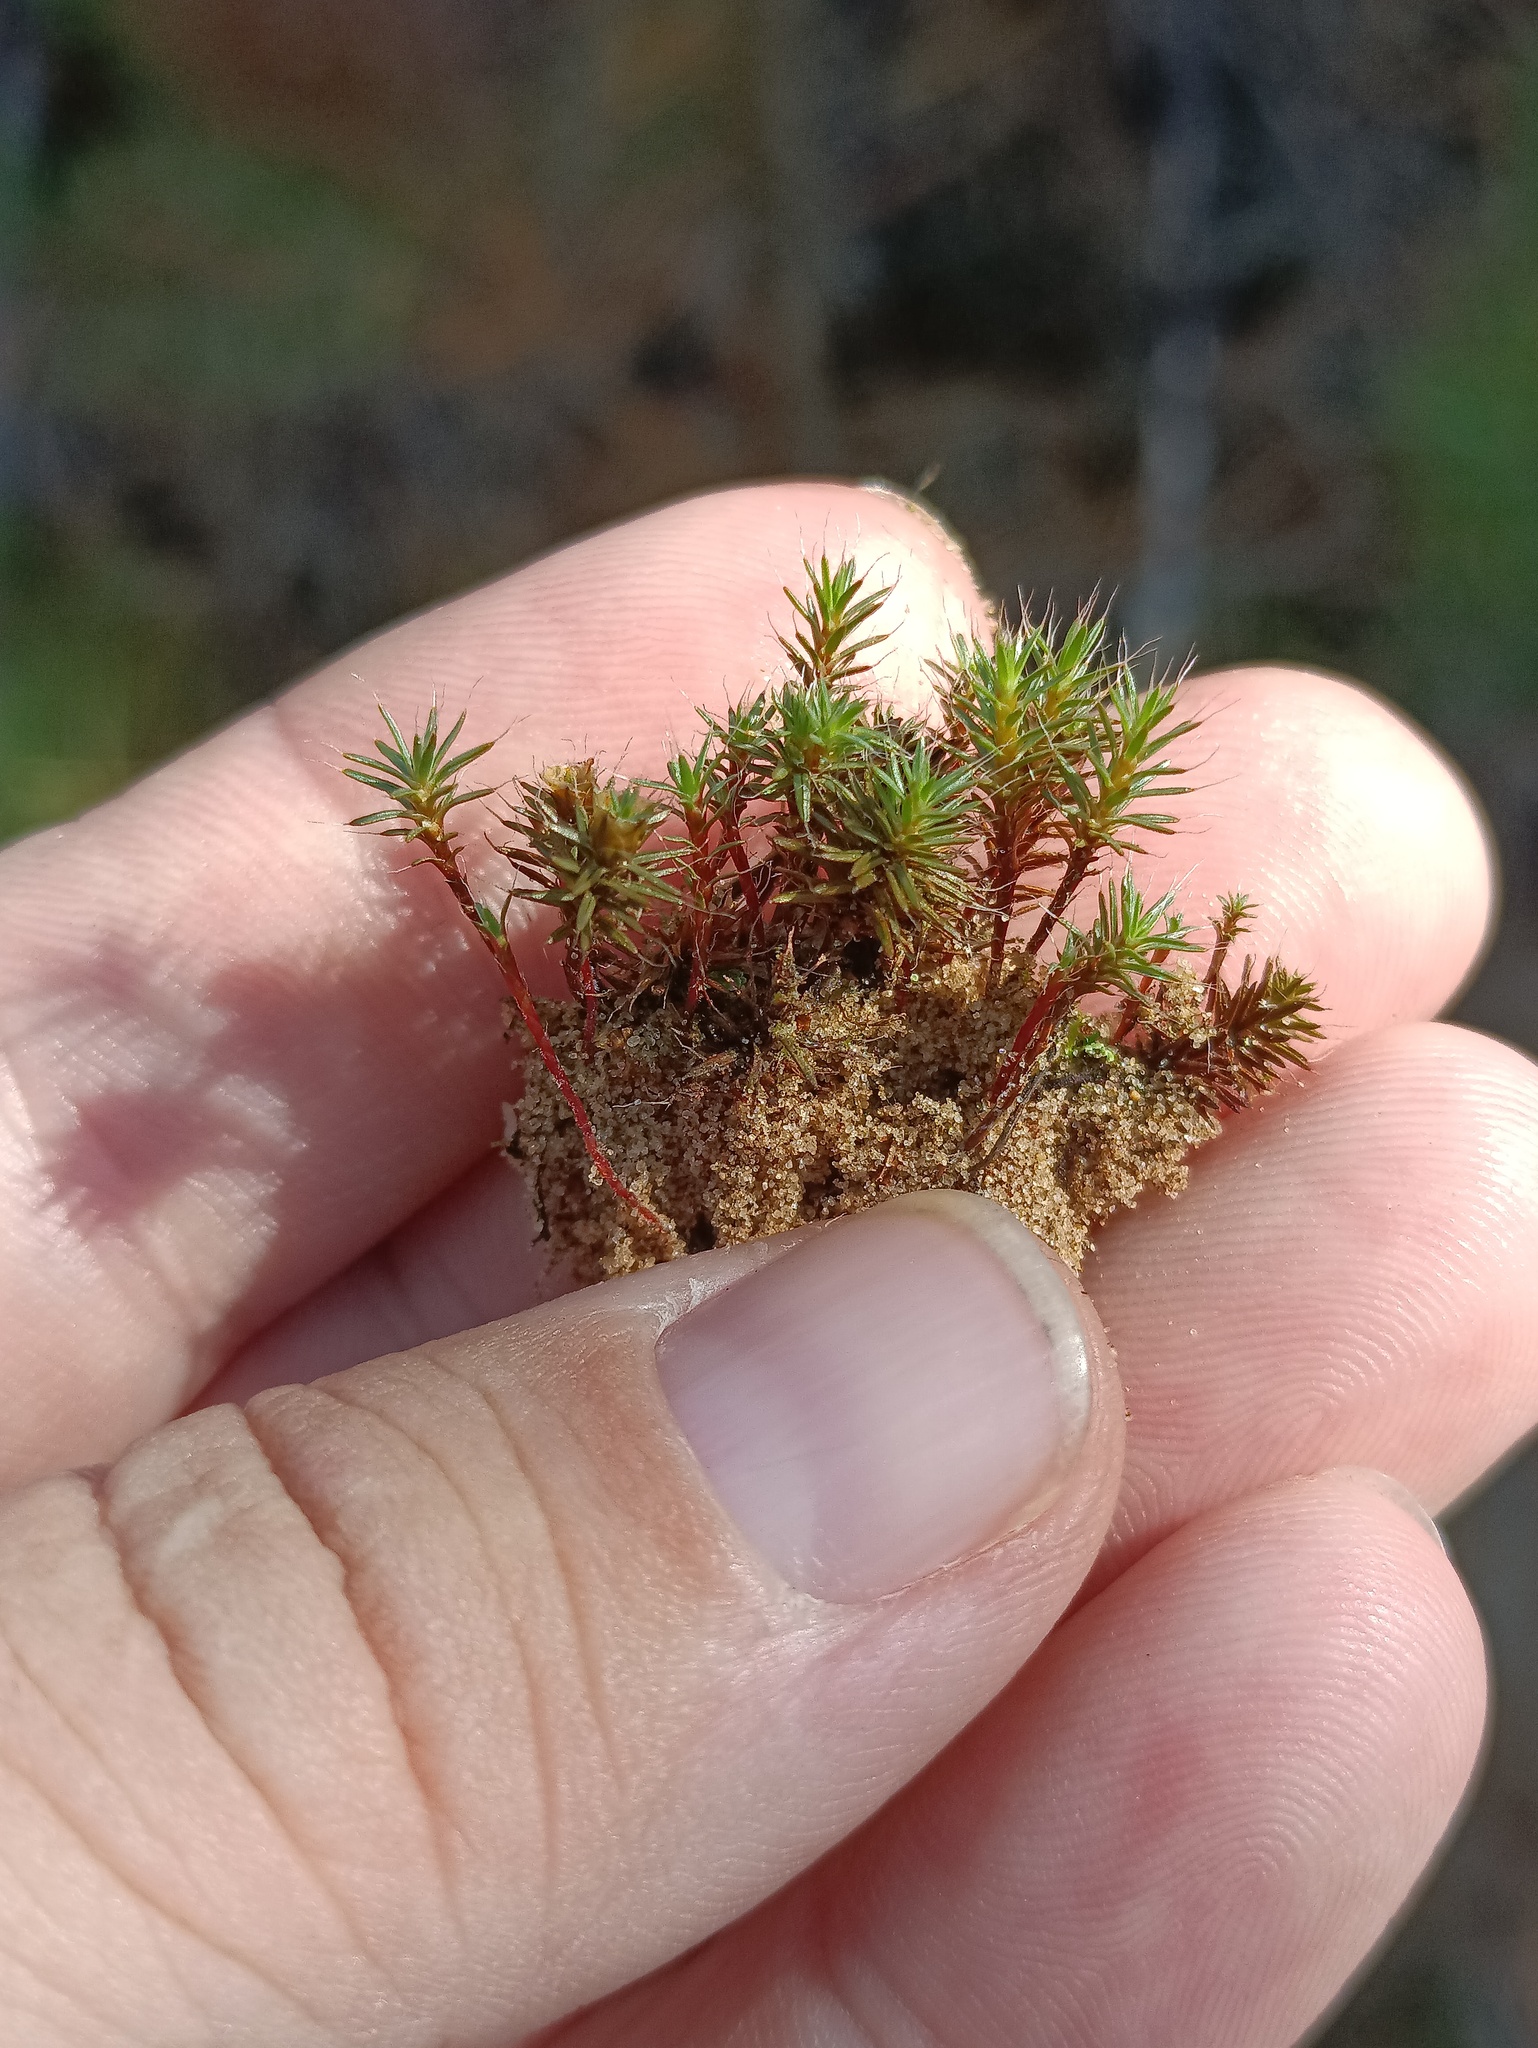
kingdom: Plantae
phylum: Bryophyta
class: Polytrichopsida
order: Polytrichales
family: Polytrichaceae
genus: Polytrichum
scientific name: Polytrichum piliferum
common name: Bristly haircap
